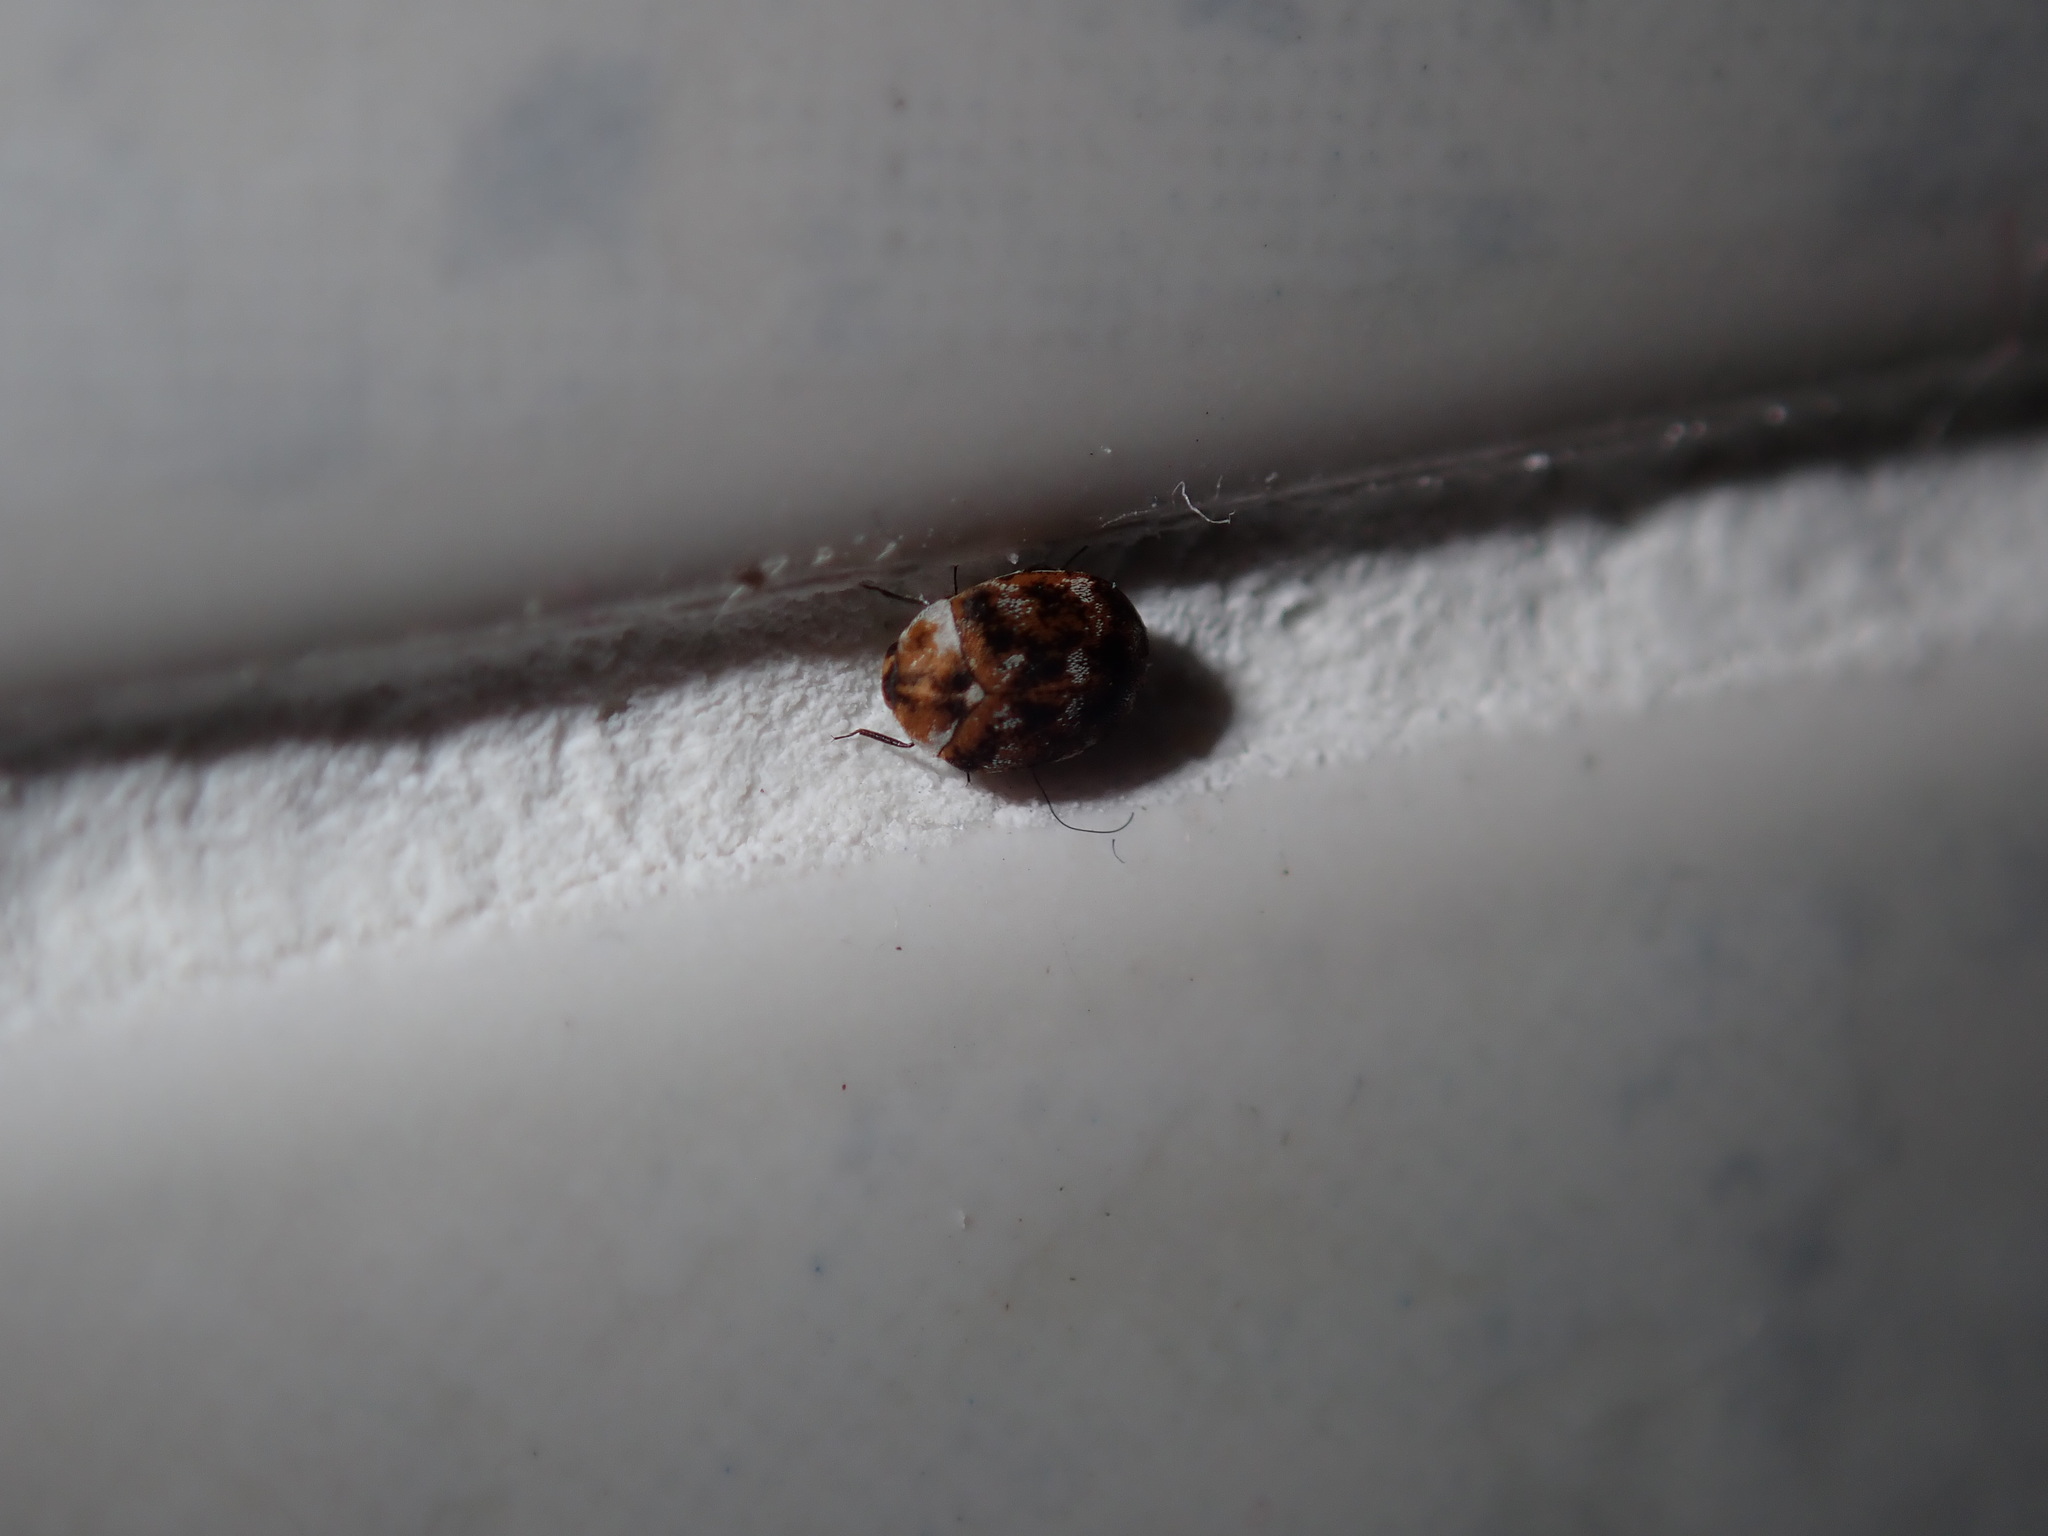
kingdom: Animalia
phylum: Arthropoda
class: Insecta
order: Coleoptera
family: Dermestidae
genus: Anthrenus
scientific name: Anthrenus verbasci
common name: Varied carpet beetle
